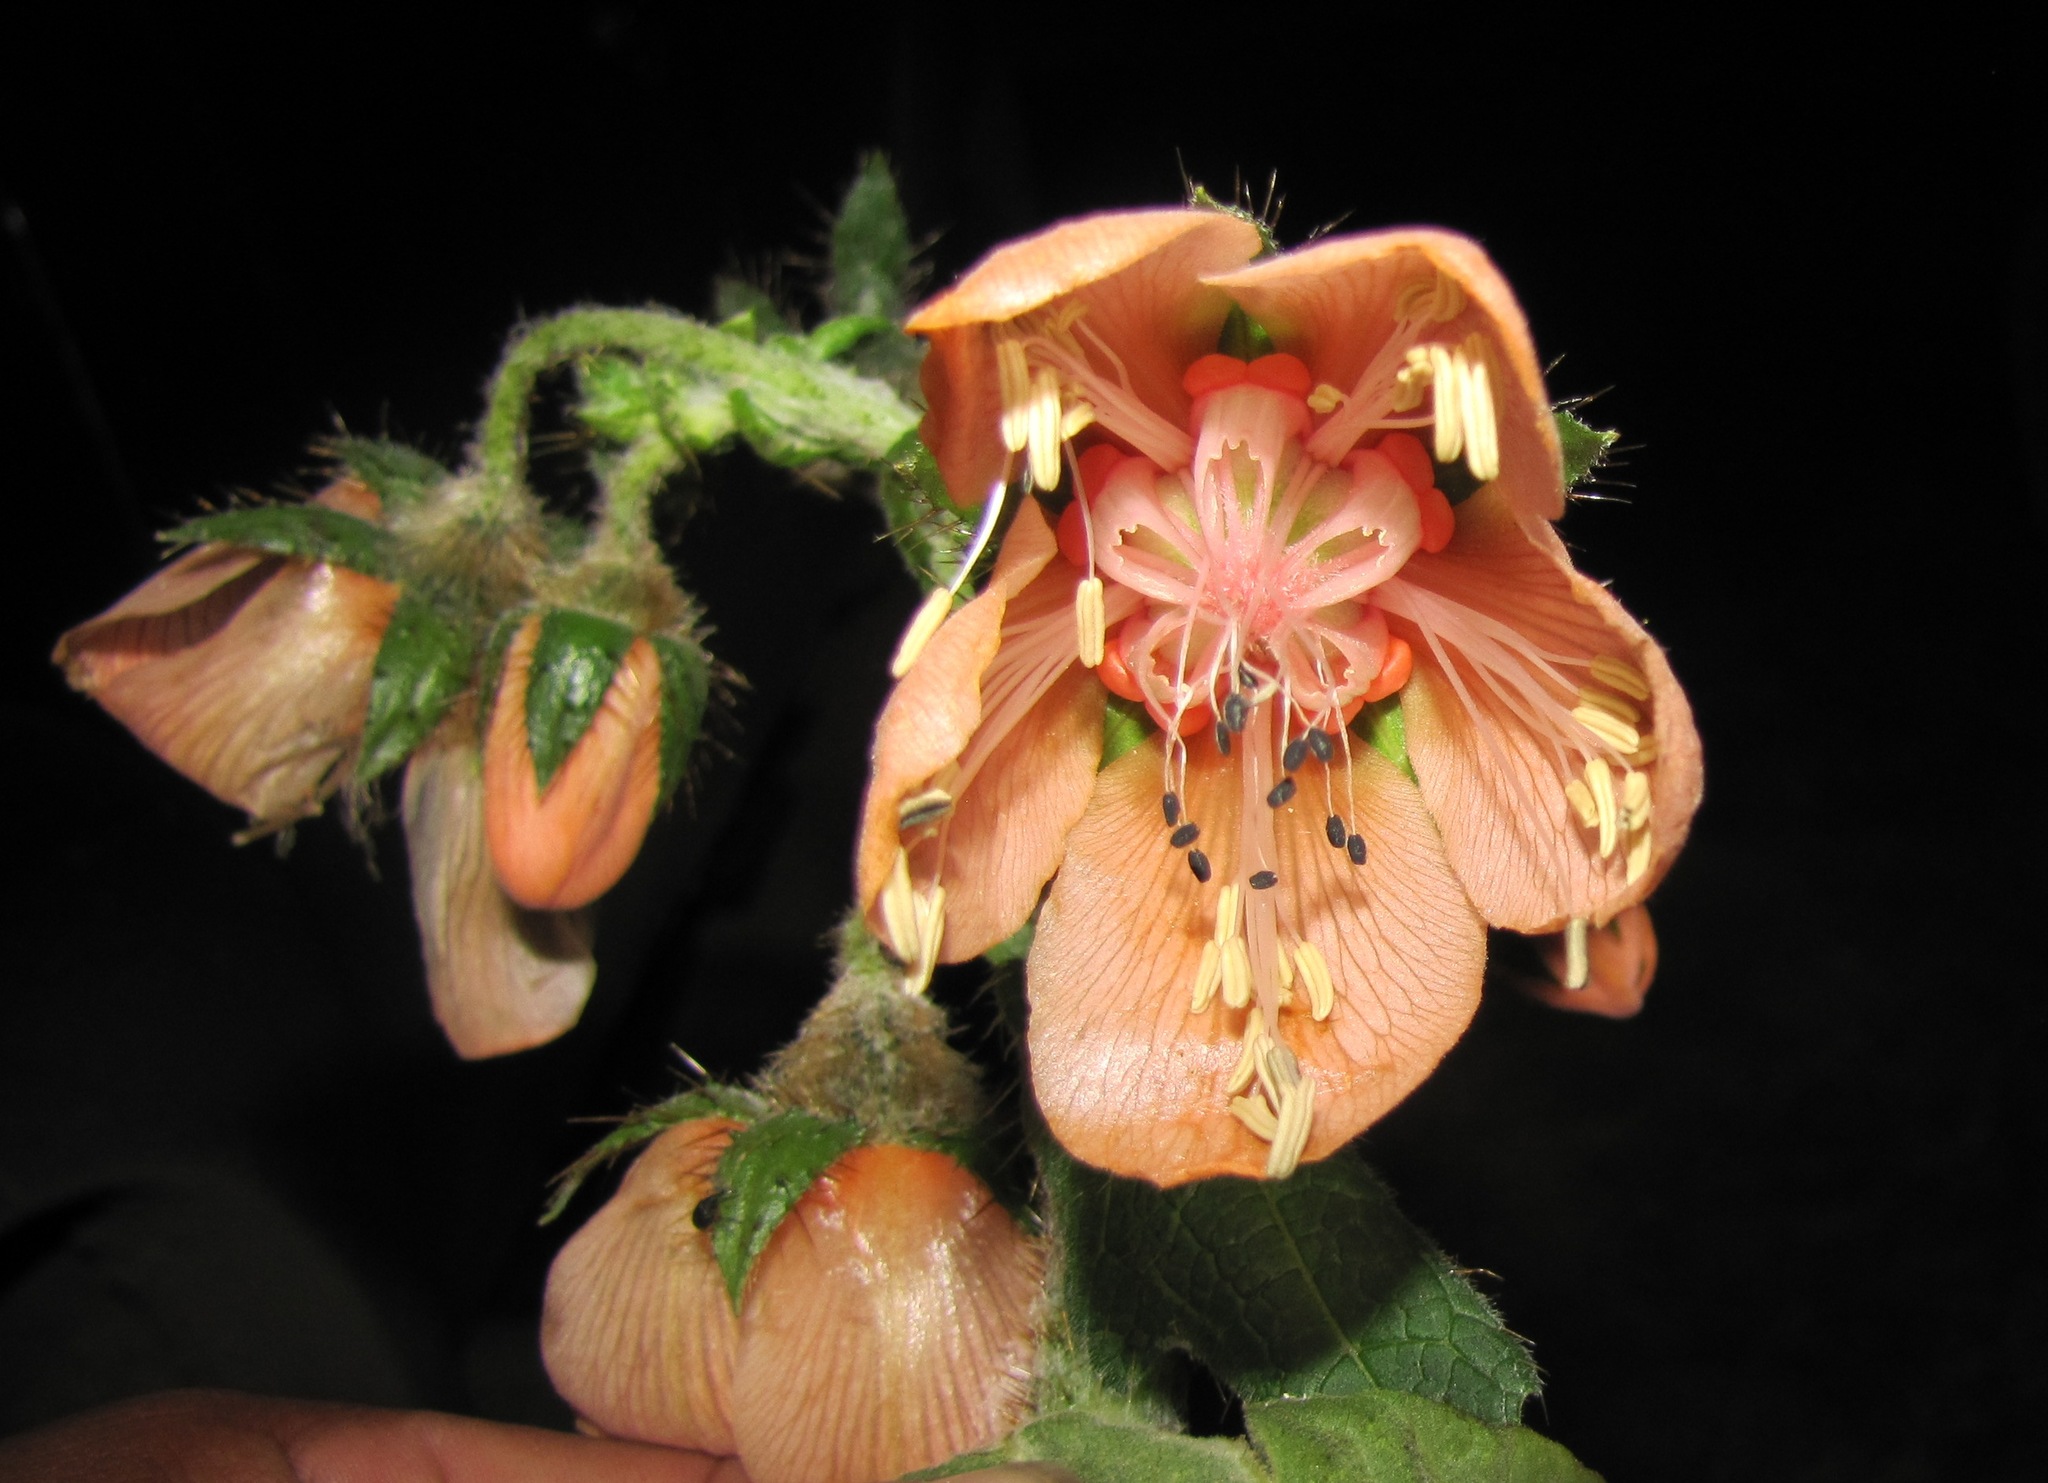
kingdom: Plantae
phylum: Tracheophyta
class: Magnoliopsida
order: Cornales
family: Loasaceae
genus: Nasa
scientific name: Nasa macrophylla
